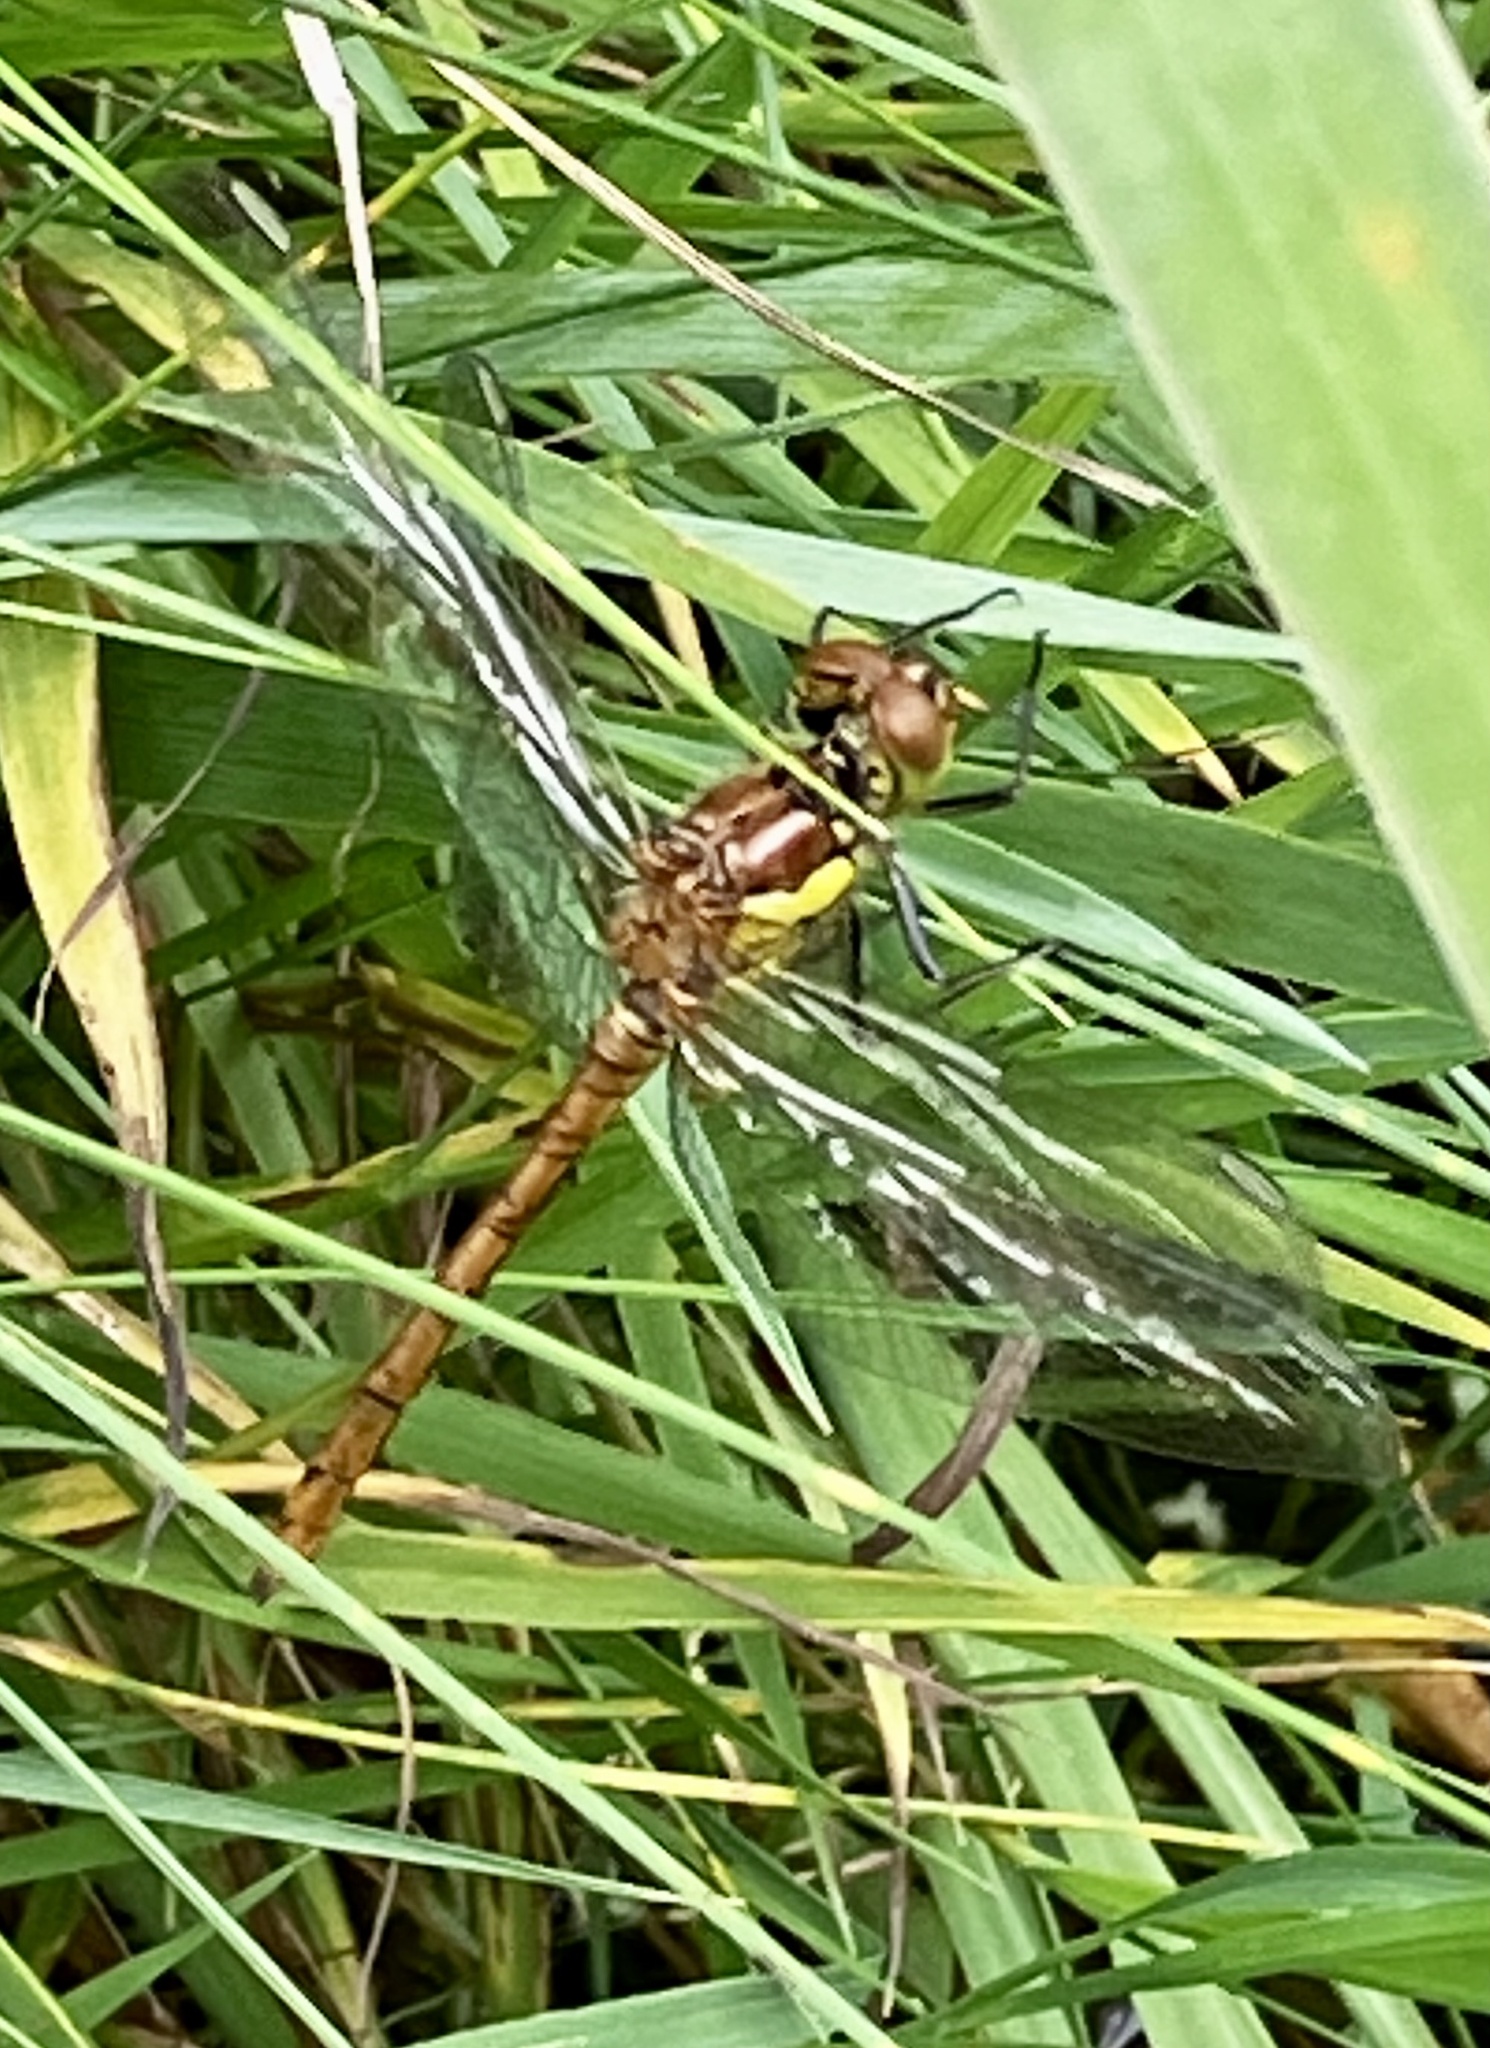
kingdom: Animalia
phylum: Arthropoda
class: Insecta
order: Odonata
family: Libellulidae
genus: Sympetrum
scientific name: Sympetrum striolatum
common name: Common darter
